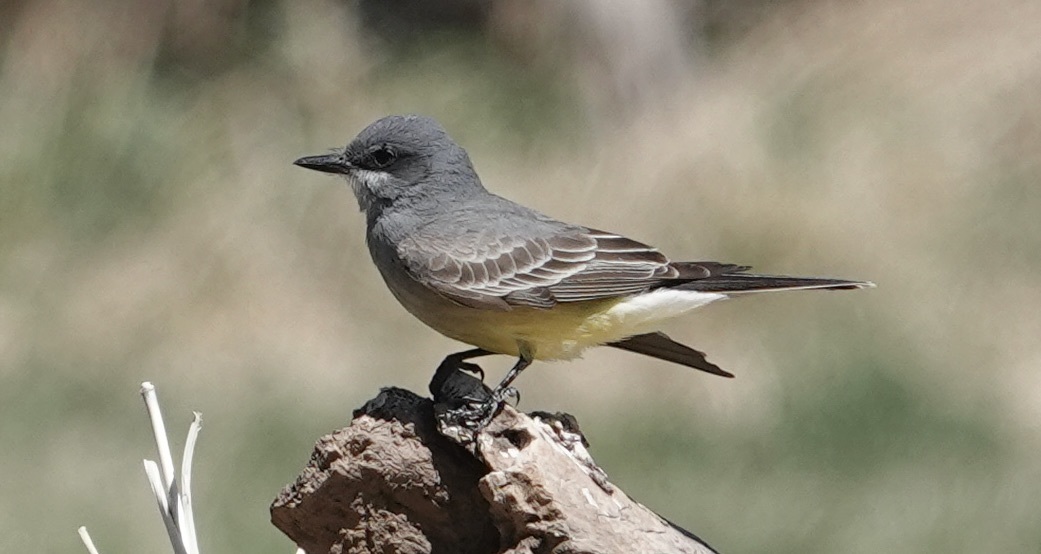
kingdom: Animalia
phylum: Chordata
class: Aves
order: Passeriformes
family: Tyrannidae
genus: Tyrannus
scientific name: Tyrannus vociferans
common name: Cassin's kingbird
